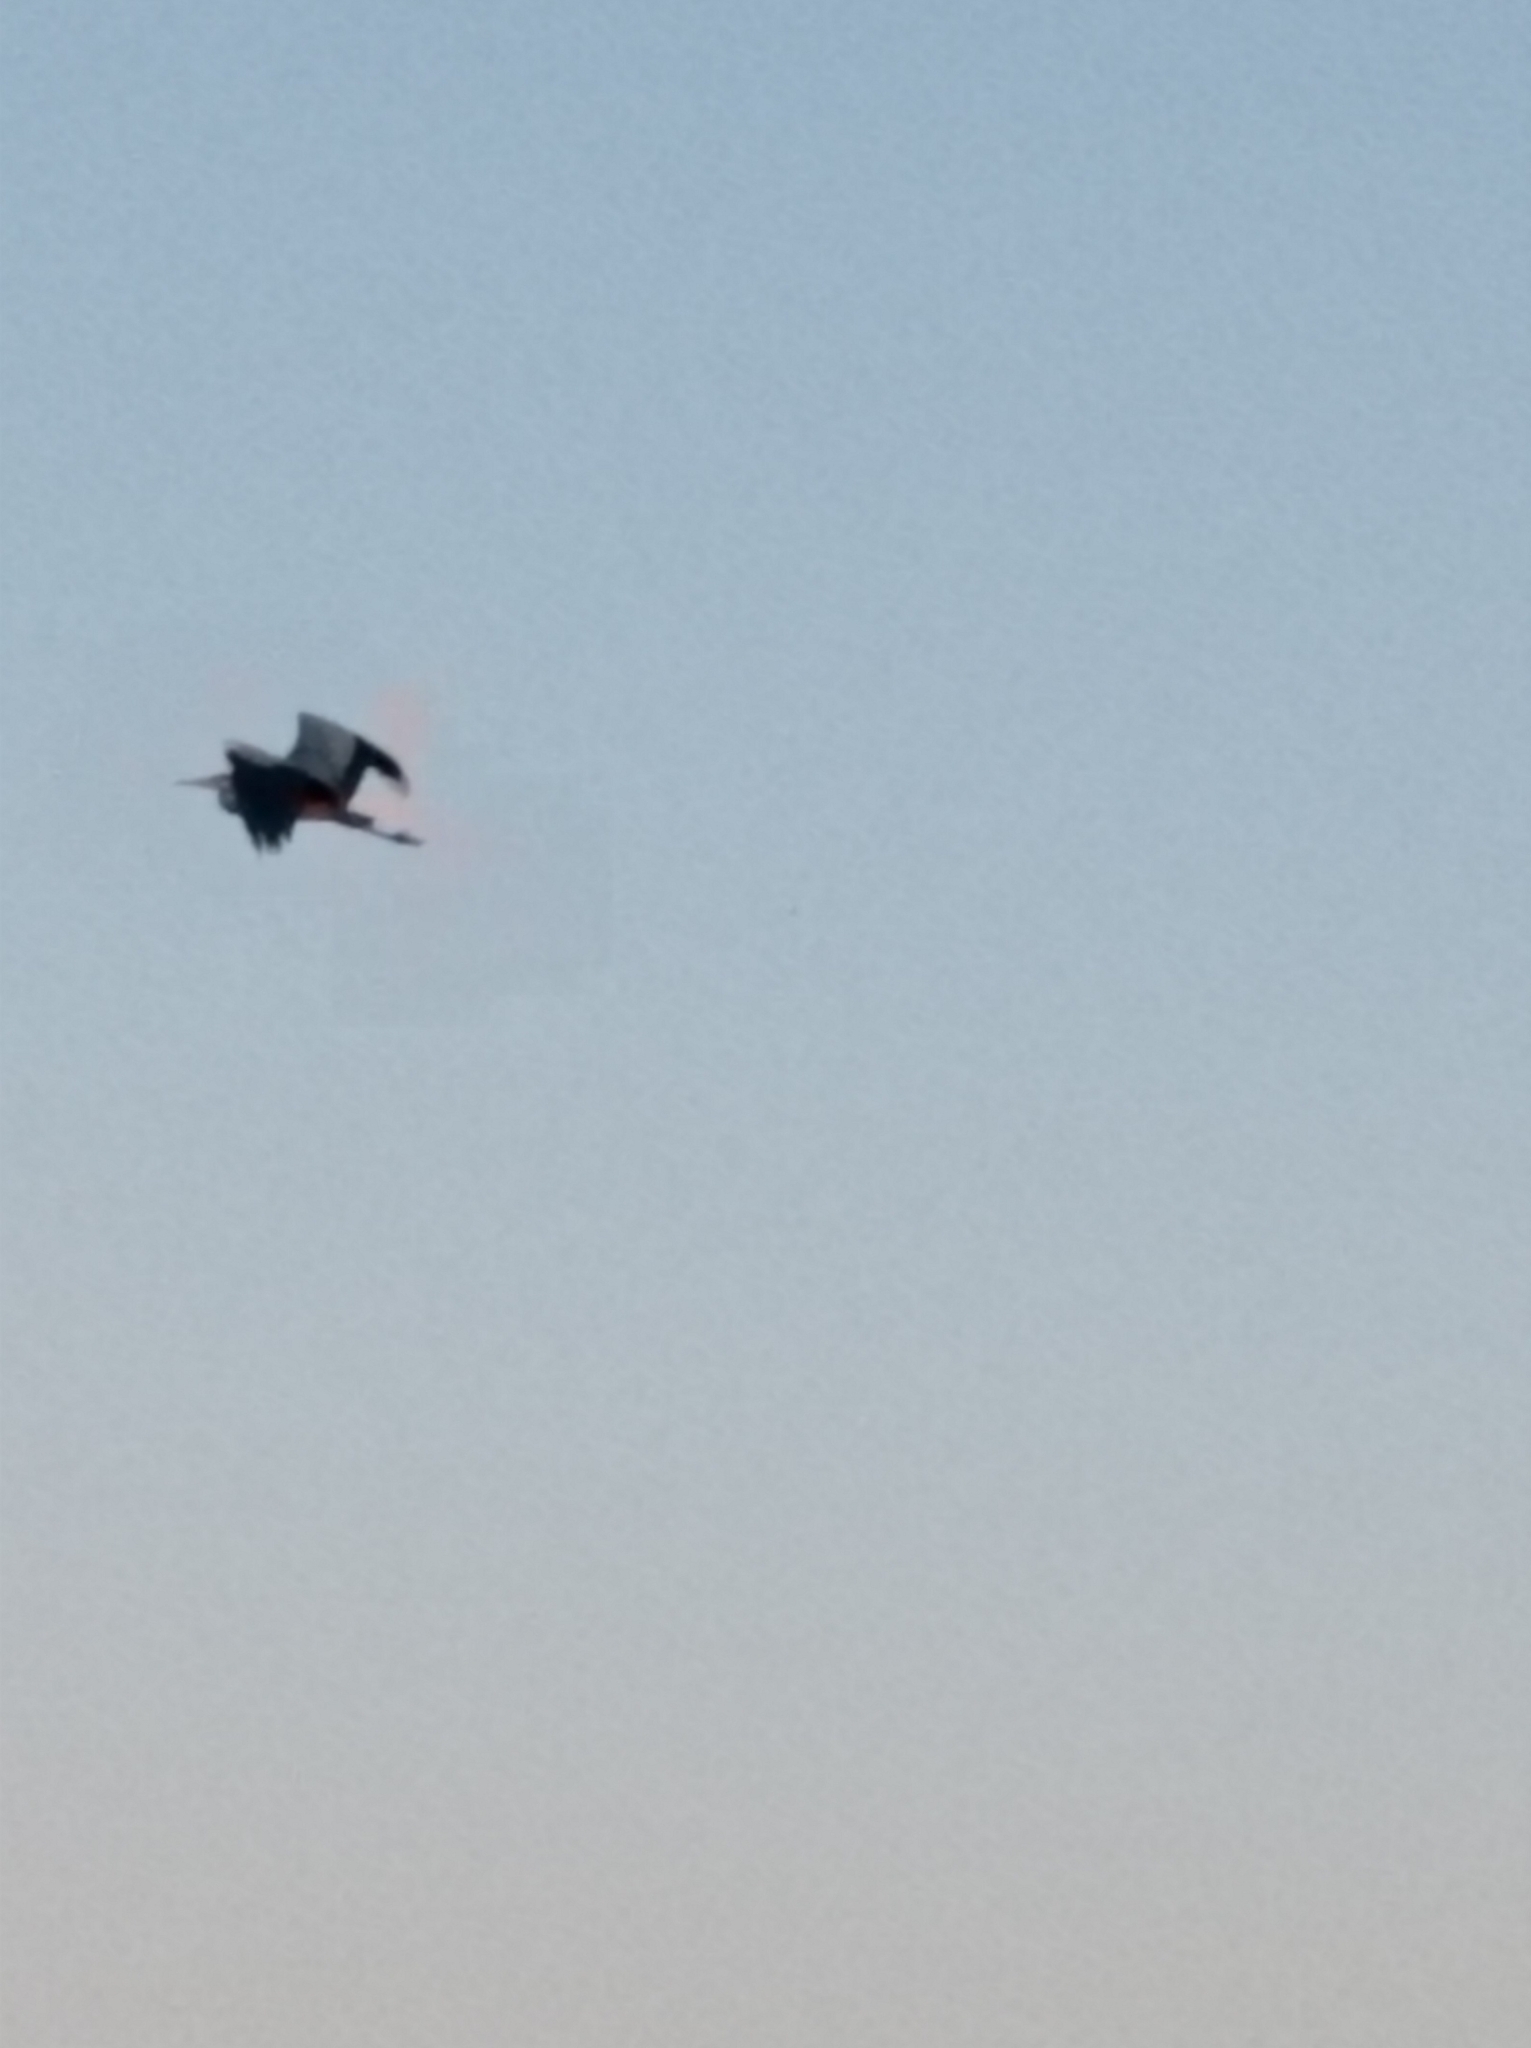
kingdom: Animalia
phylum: Chordata
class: Aves
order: Pelecaniformes
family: Ardeidae
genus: Ardea
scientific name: Ardea cinerea
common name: Grey heron
